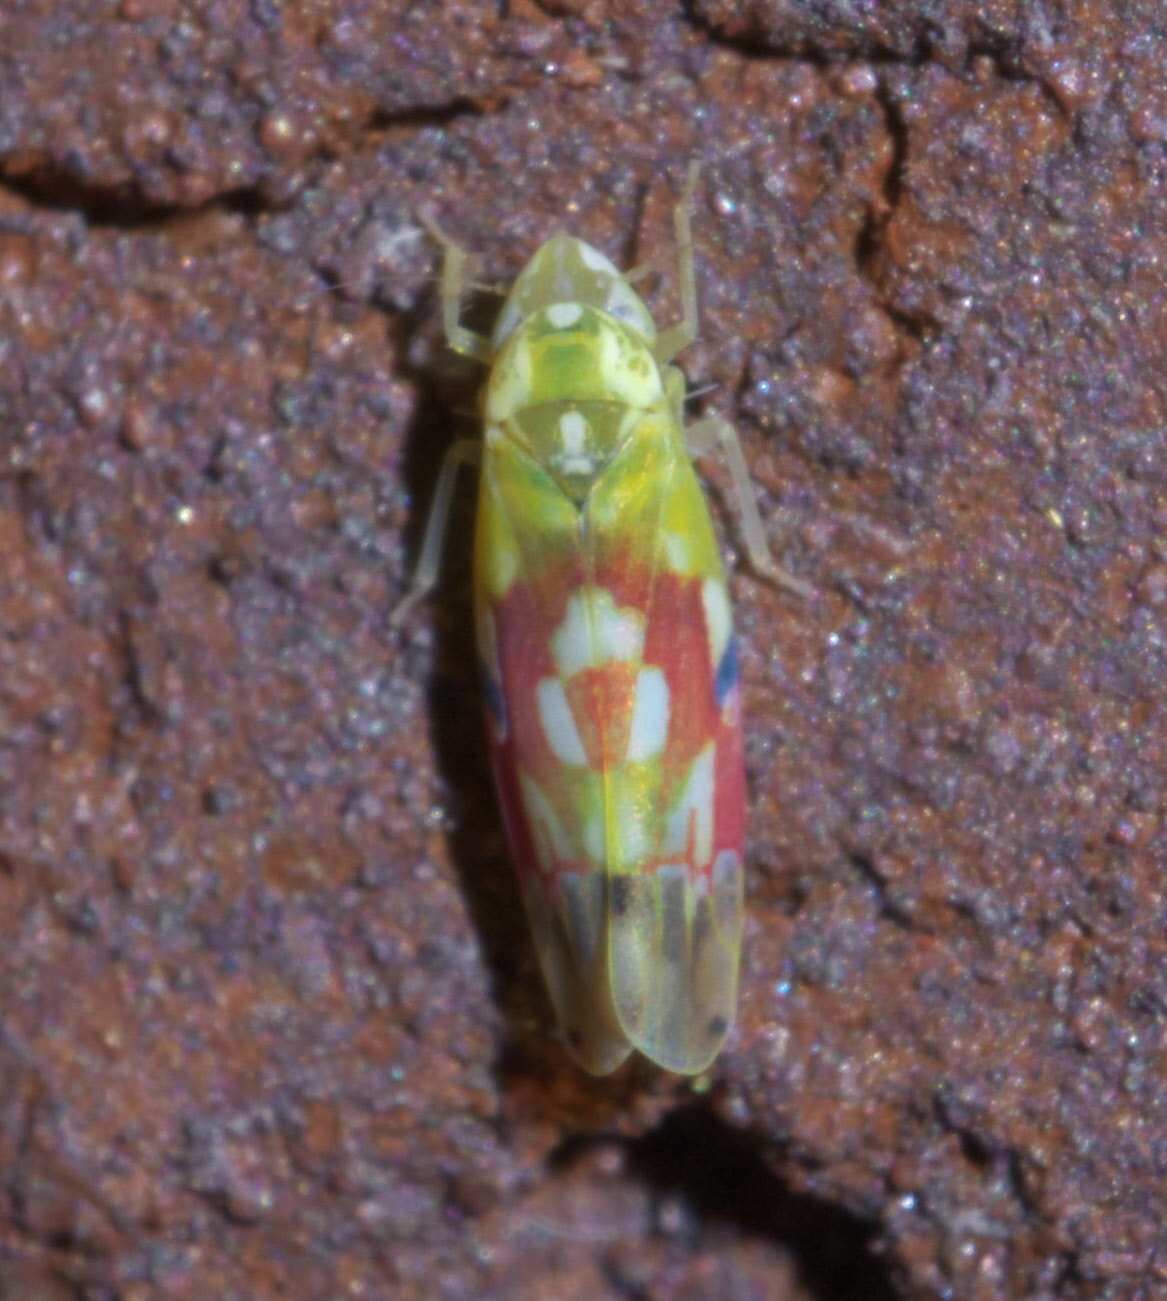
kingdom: Animalia
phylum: Arthropoda
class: Insecta
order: Hemiptera
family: Cicadellidae
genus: Erythroneura
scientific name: Erythroneura reflecta
